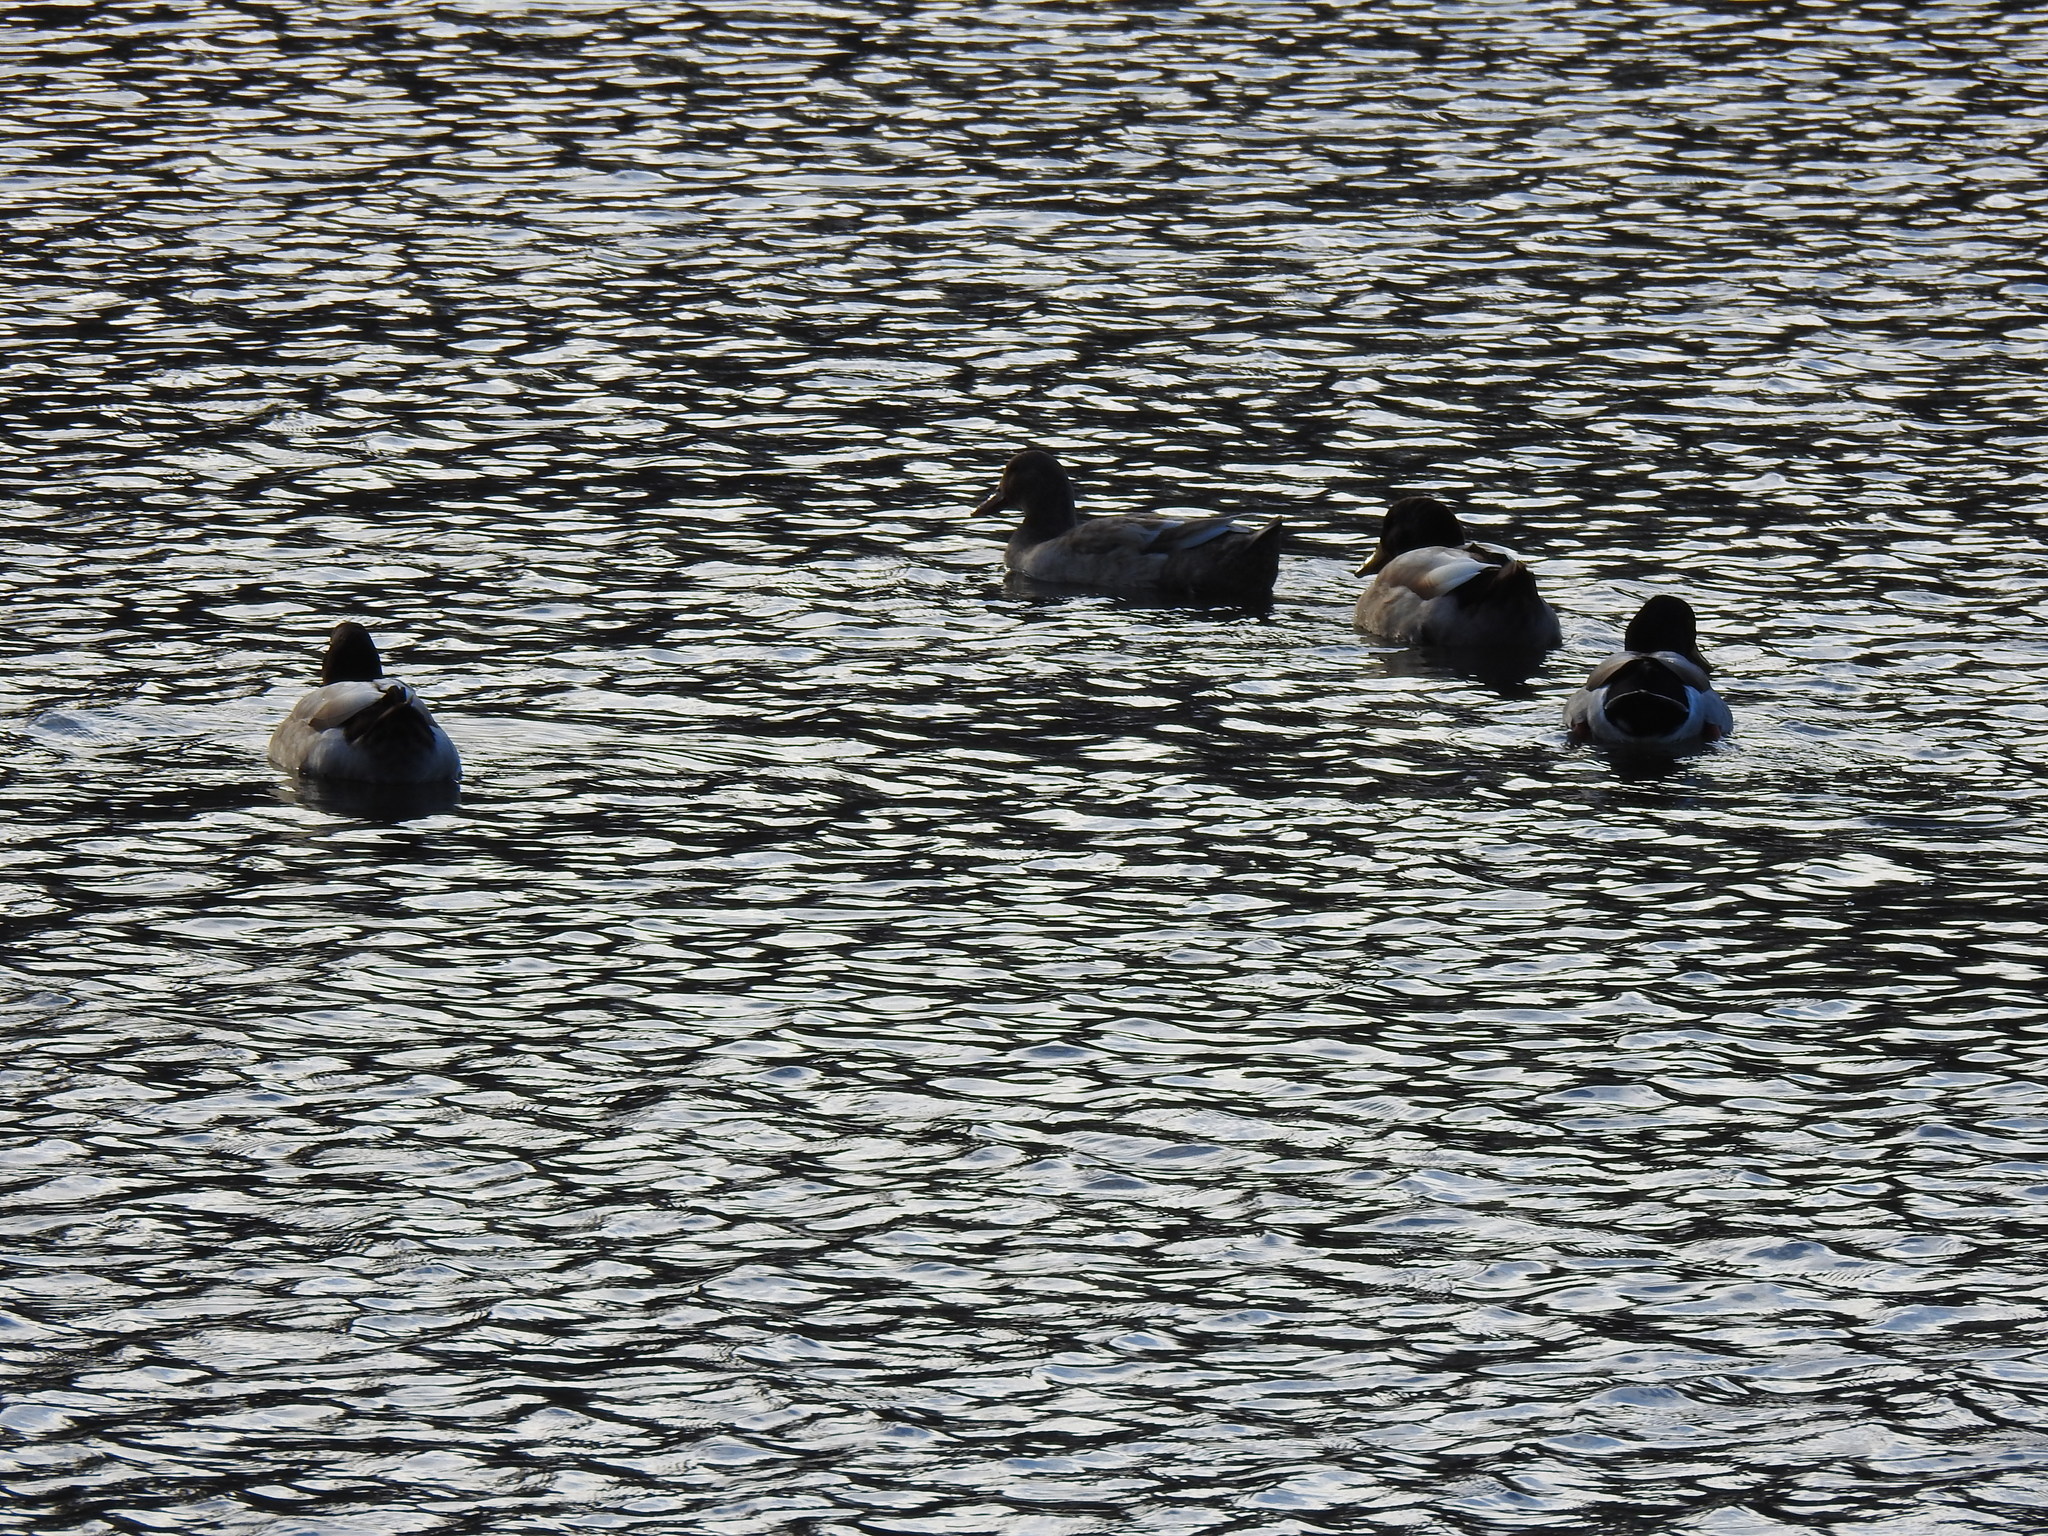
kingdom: Animalia
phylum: Chordata
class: Aves
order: Anseriformes
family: Anatidae
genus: Anas
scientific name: Anas platyrhynchos
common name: Mallard
